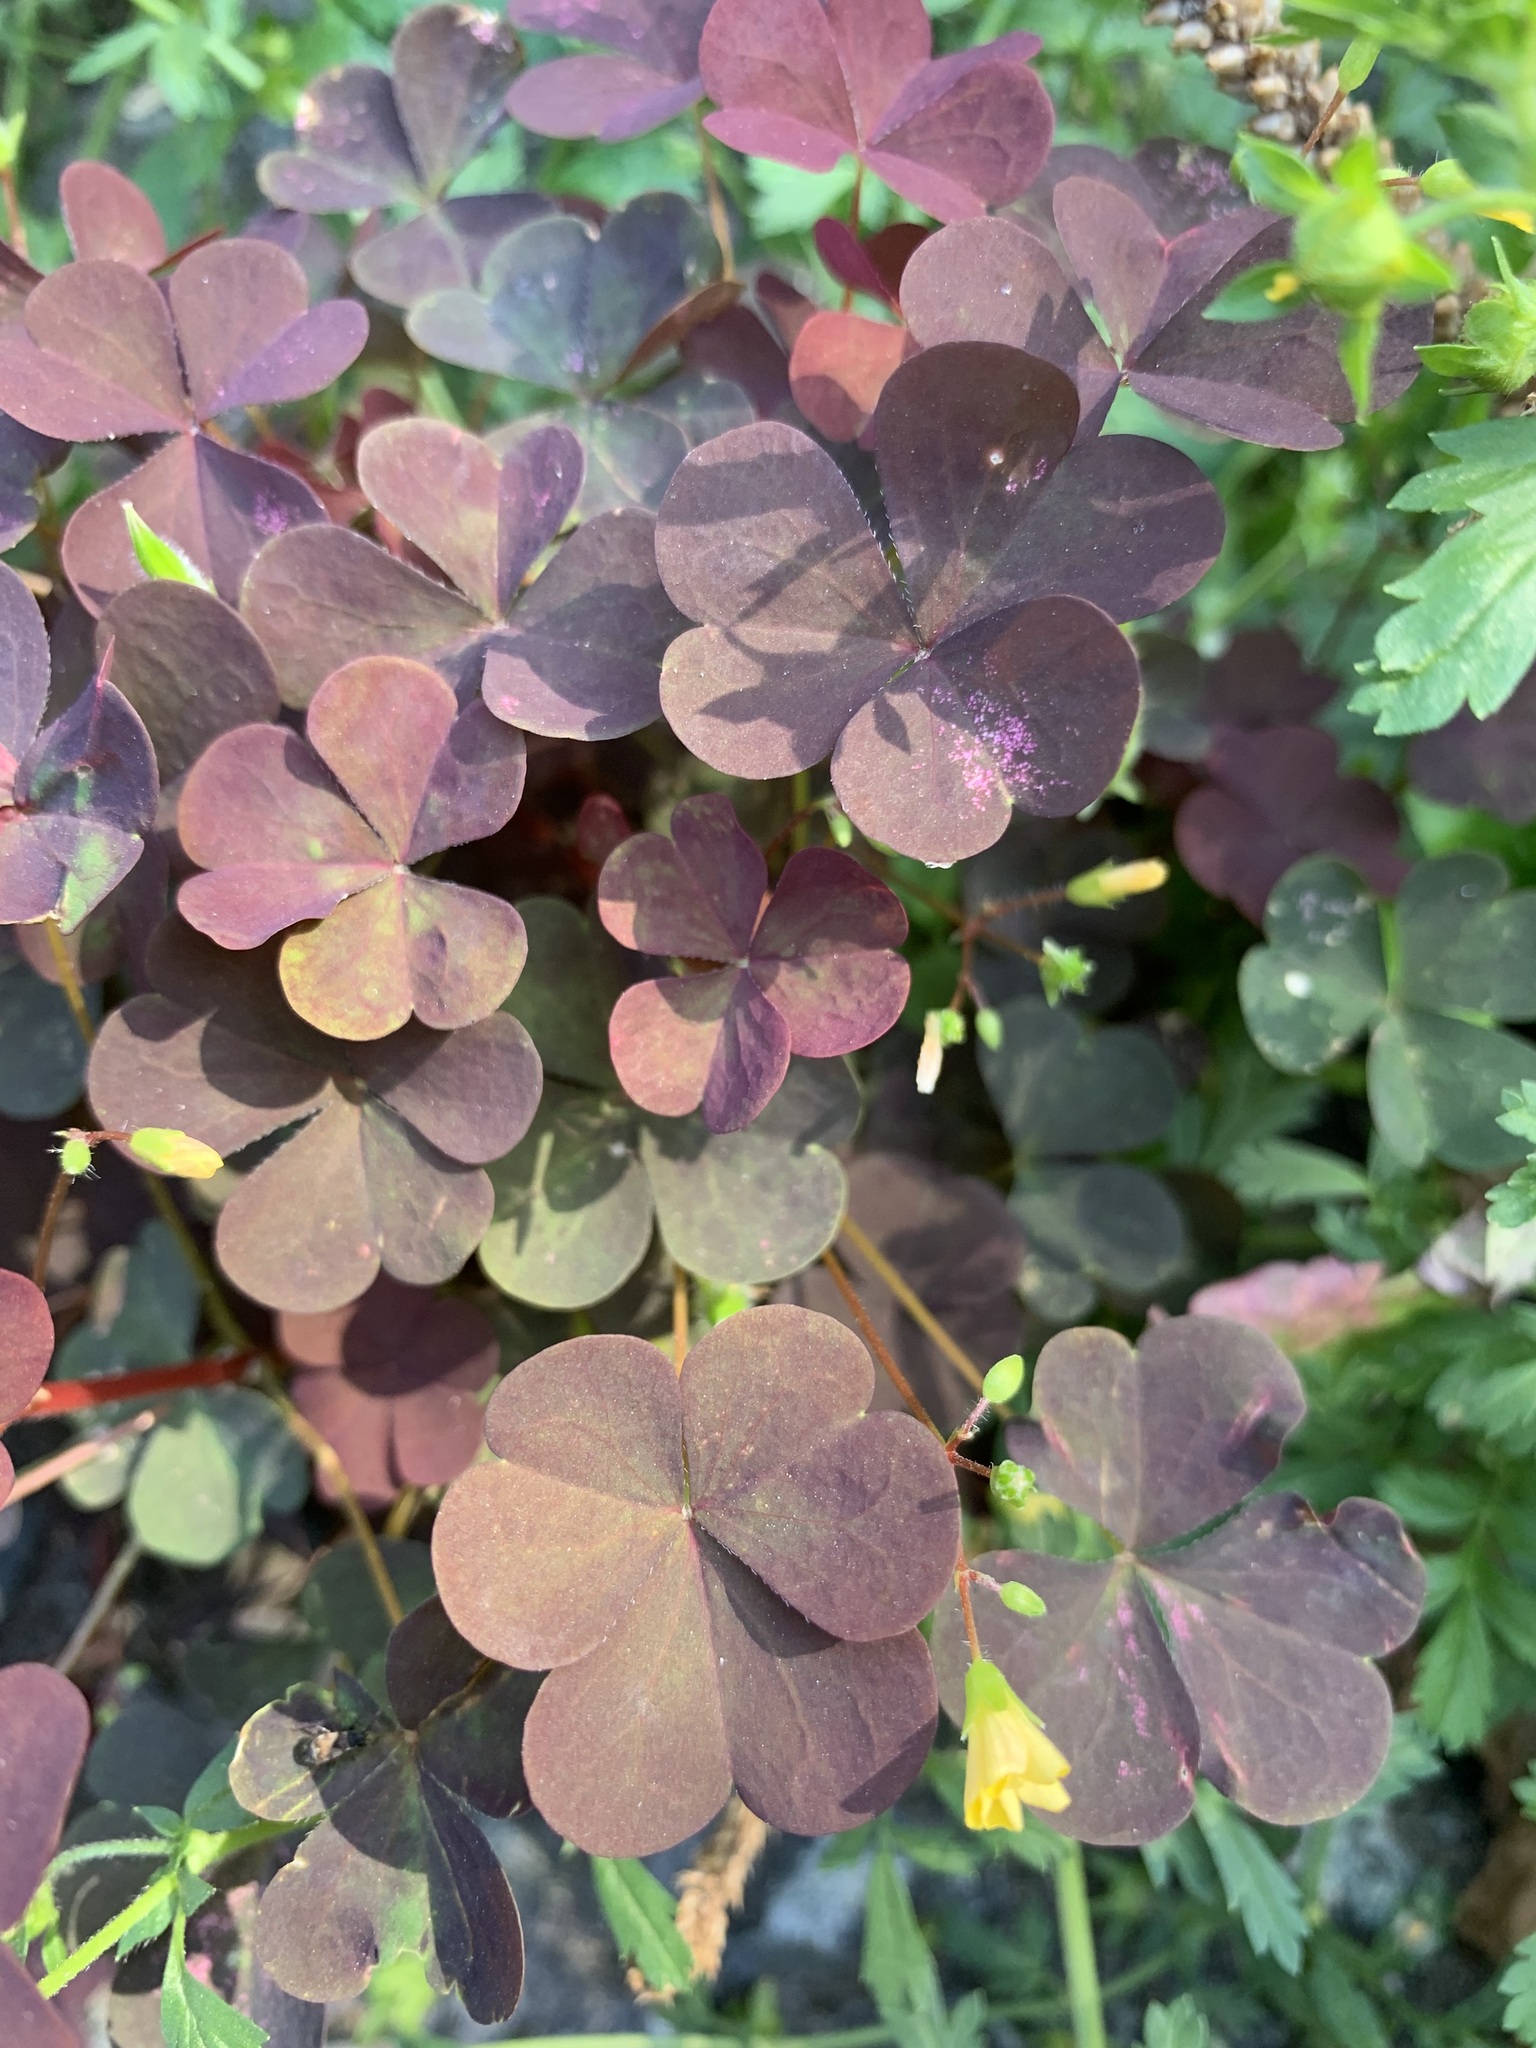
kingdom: Plantae
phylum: Tracheophyta
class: Magnoliopsida
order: Oxalidales
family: Oxalidaceae
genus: Oxalis
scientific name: Oxalis stricta
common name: Upright yellow-sorrel
